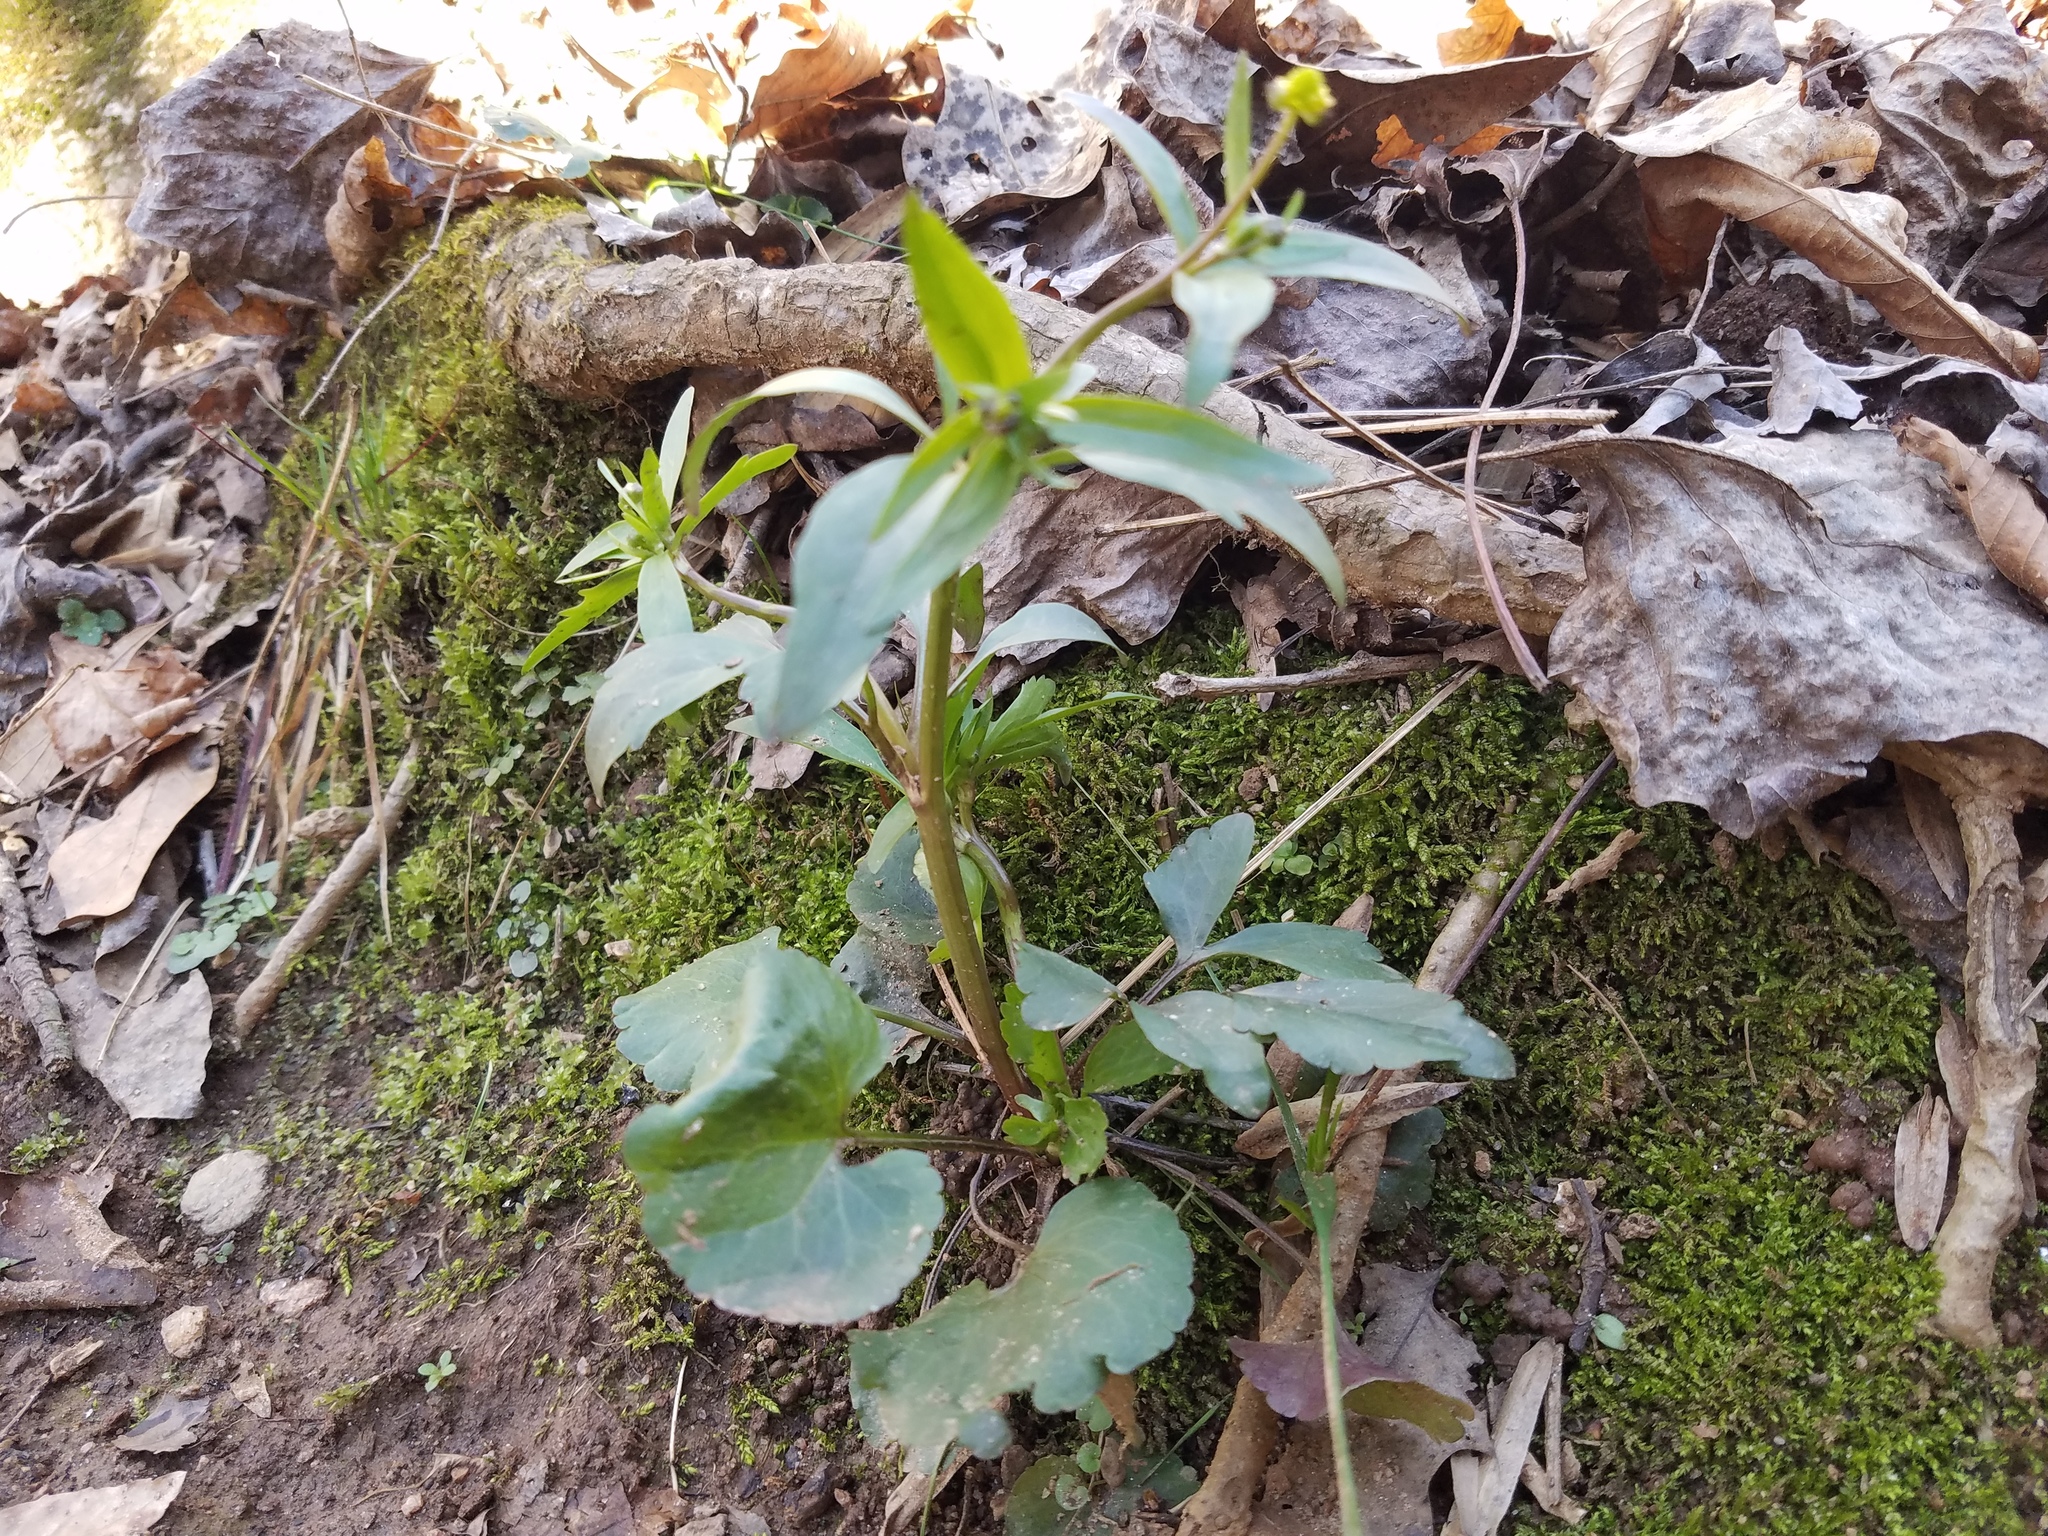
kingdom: Plantae
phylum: Tracheophyta
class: Magnoliopsida
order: Ranunculales
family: Ranunculaceae
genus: Ranunculus
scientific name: Ranunculus abortivus
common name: Early wood buttercup
